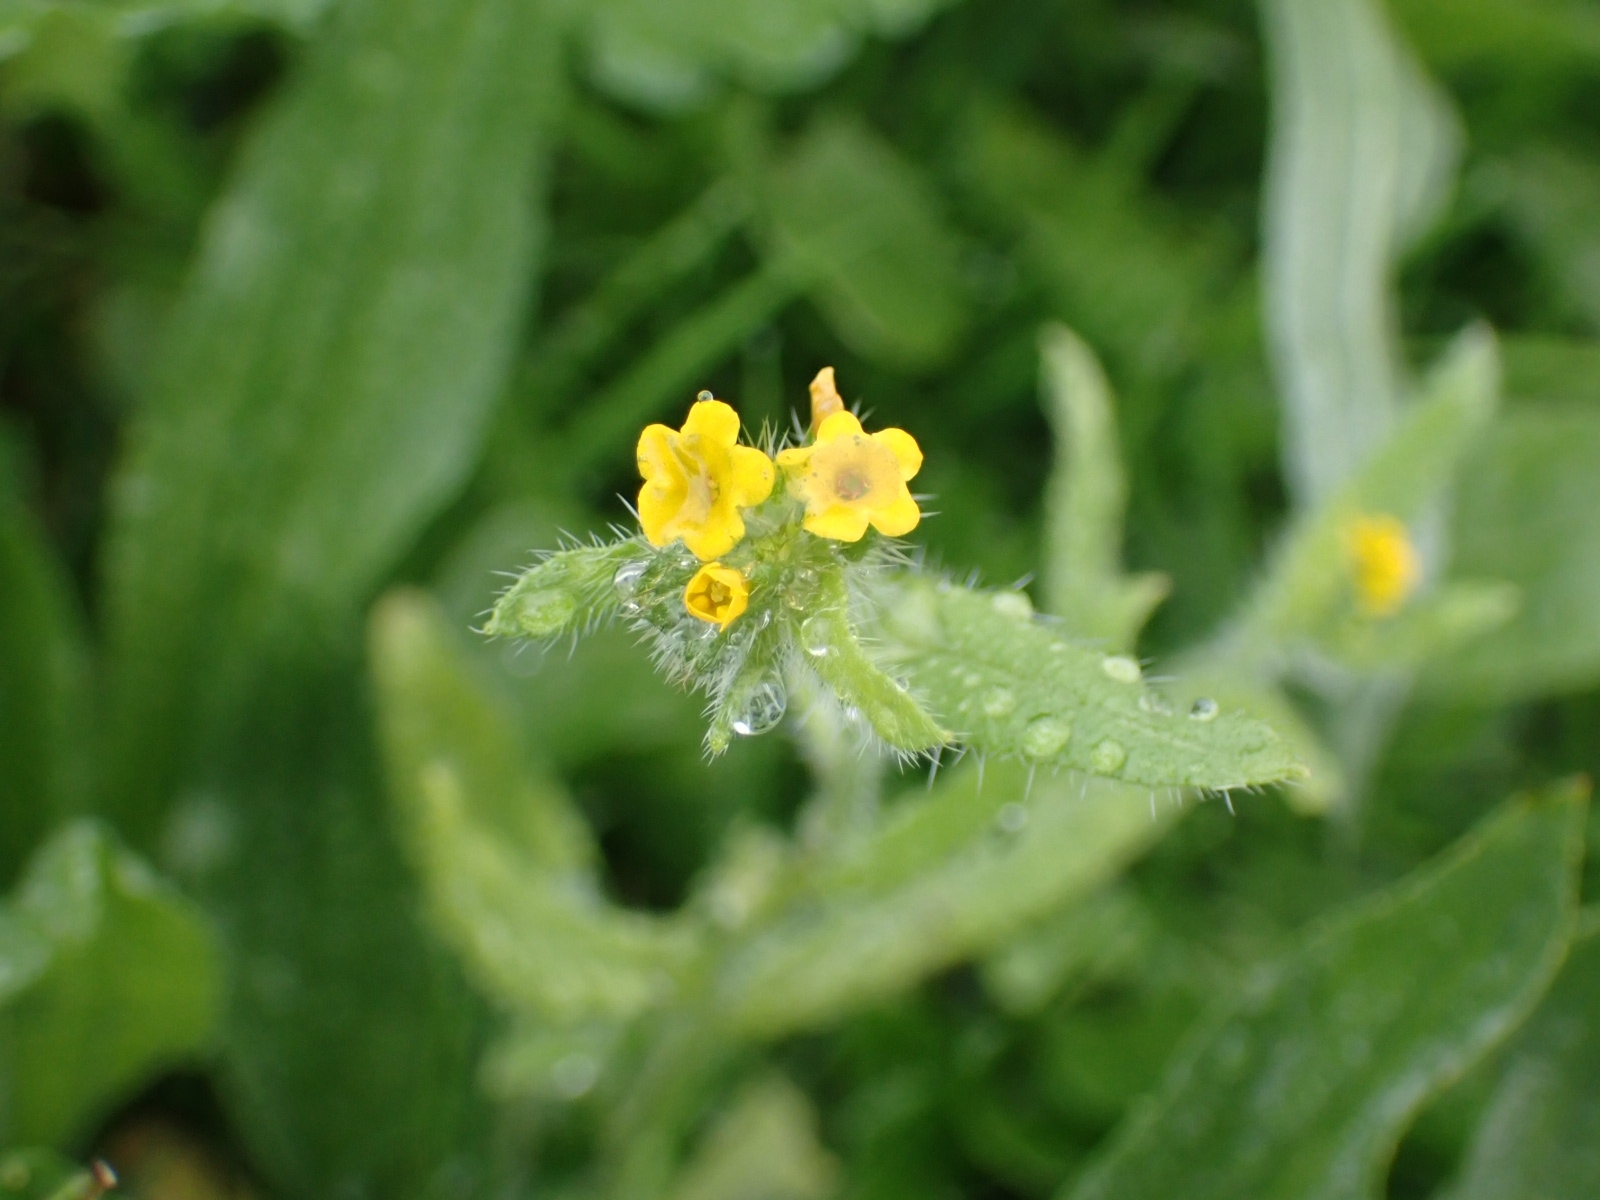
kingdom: Plantae
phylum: Tracheophyta
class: Magnoliopsida
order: Boraginales
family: Boraginaceae
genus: Amsinckia
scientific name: Amsinckia menziesii
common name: Menzies' fiddleneck
